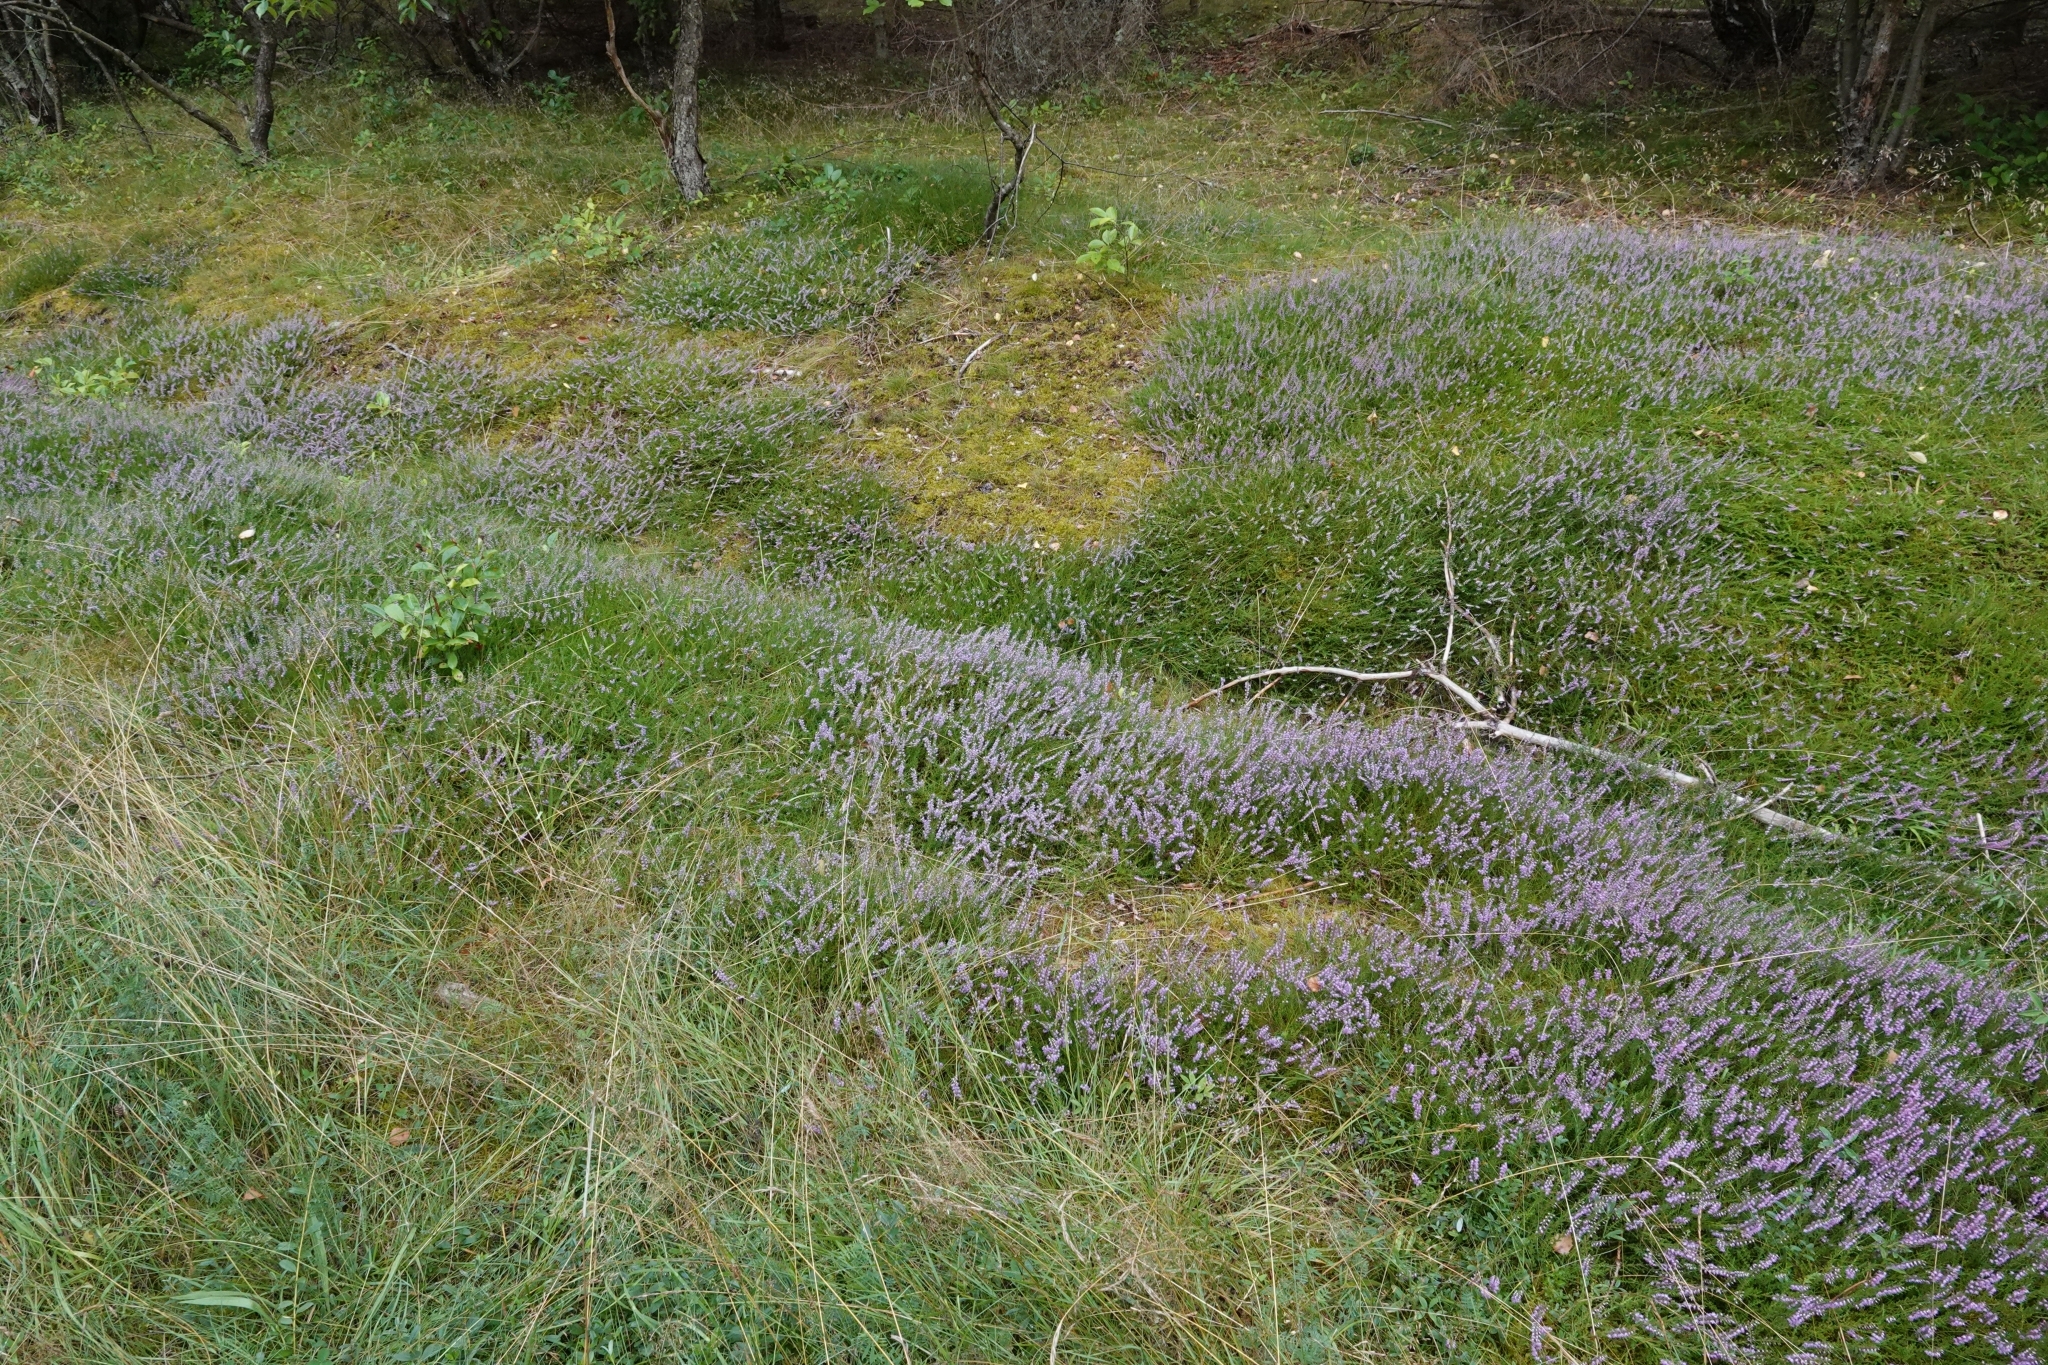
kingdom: Plantae
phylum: Tracheophyta
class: Magnoliopsida
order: Ericales
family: Ericaceae
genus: Calluna
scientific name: Calluna vulgaris
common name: Heather
